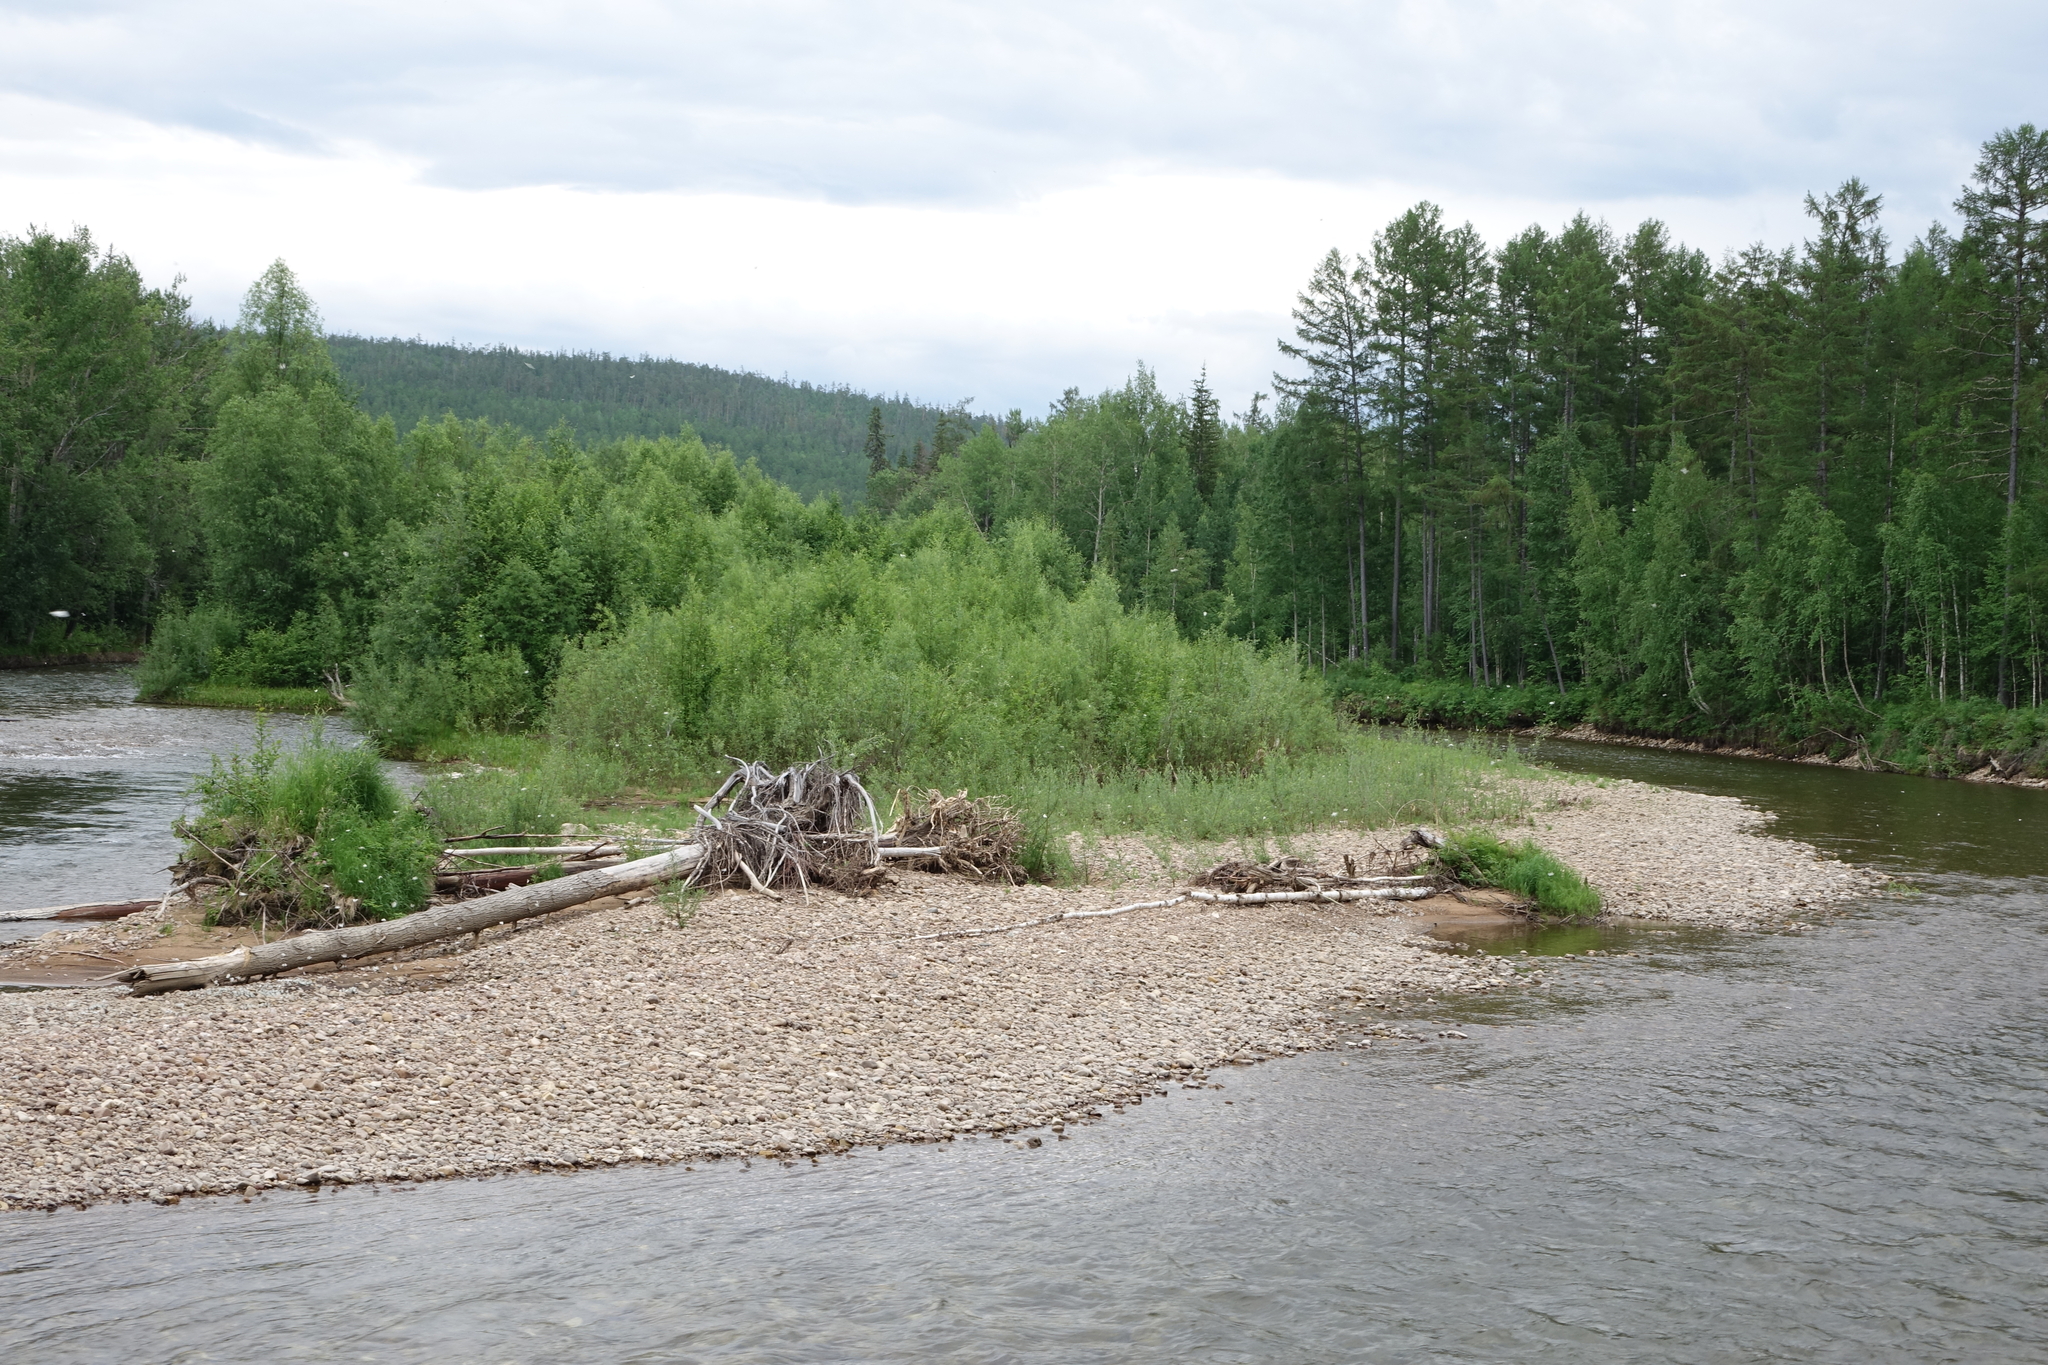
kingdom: Plantae
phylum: Tracheophyta
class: Pinopsida
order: Pinales
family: Pinaceae
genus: Larix
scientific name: Larix gmelinii
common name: Dahurian larch
